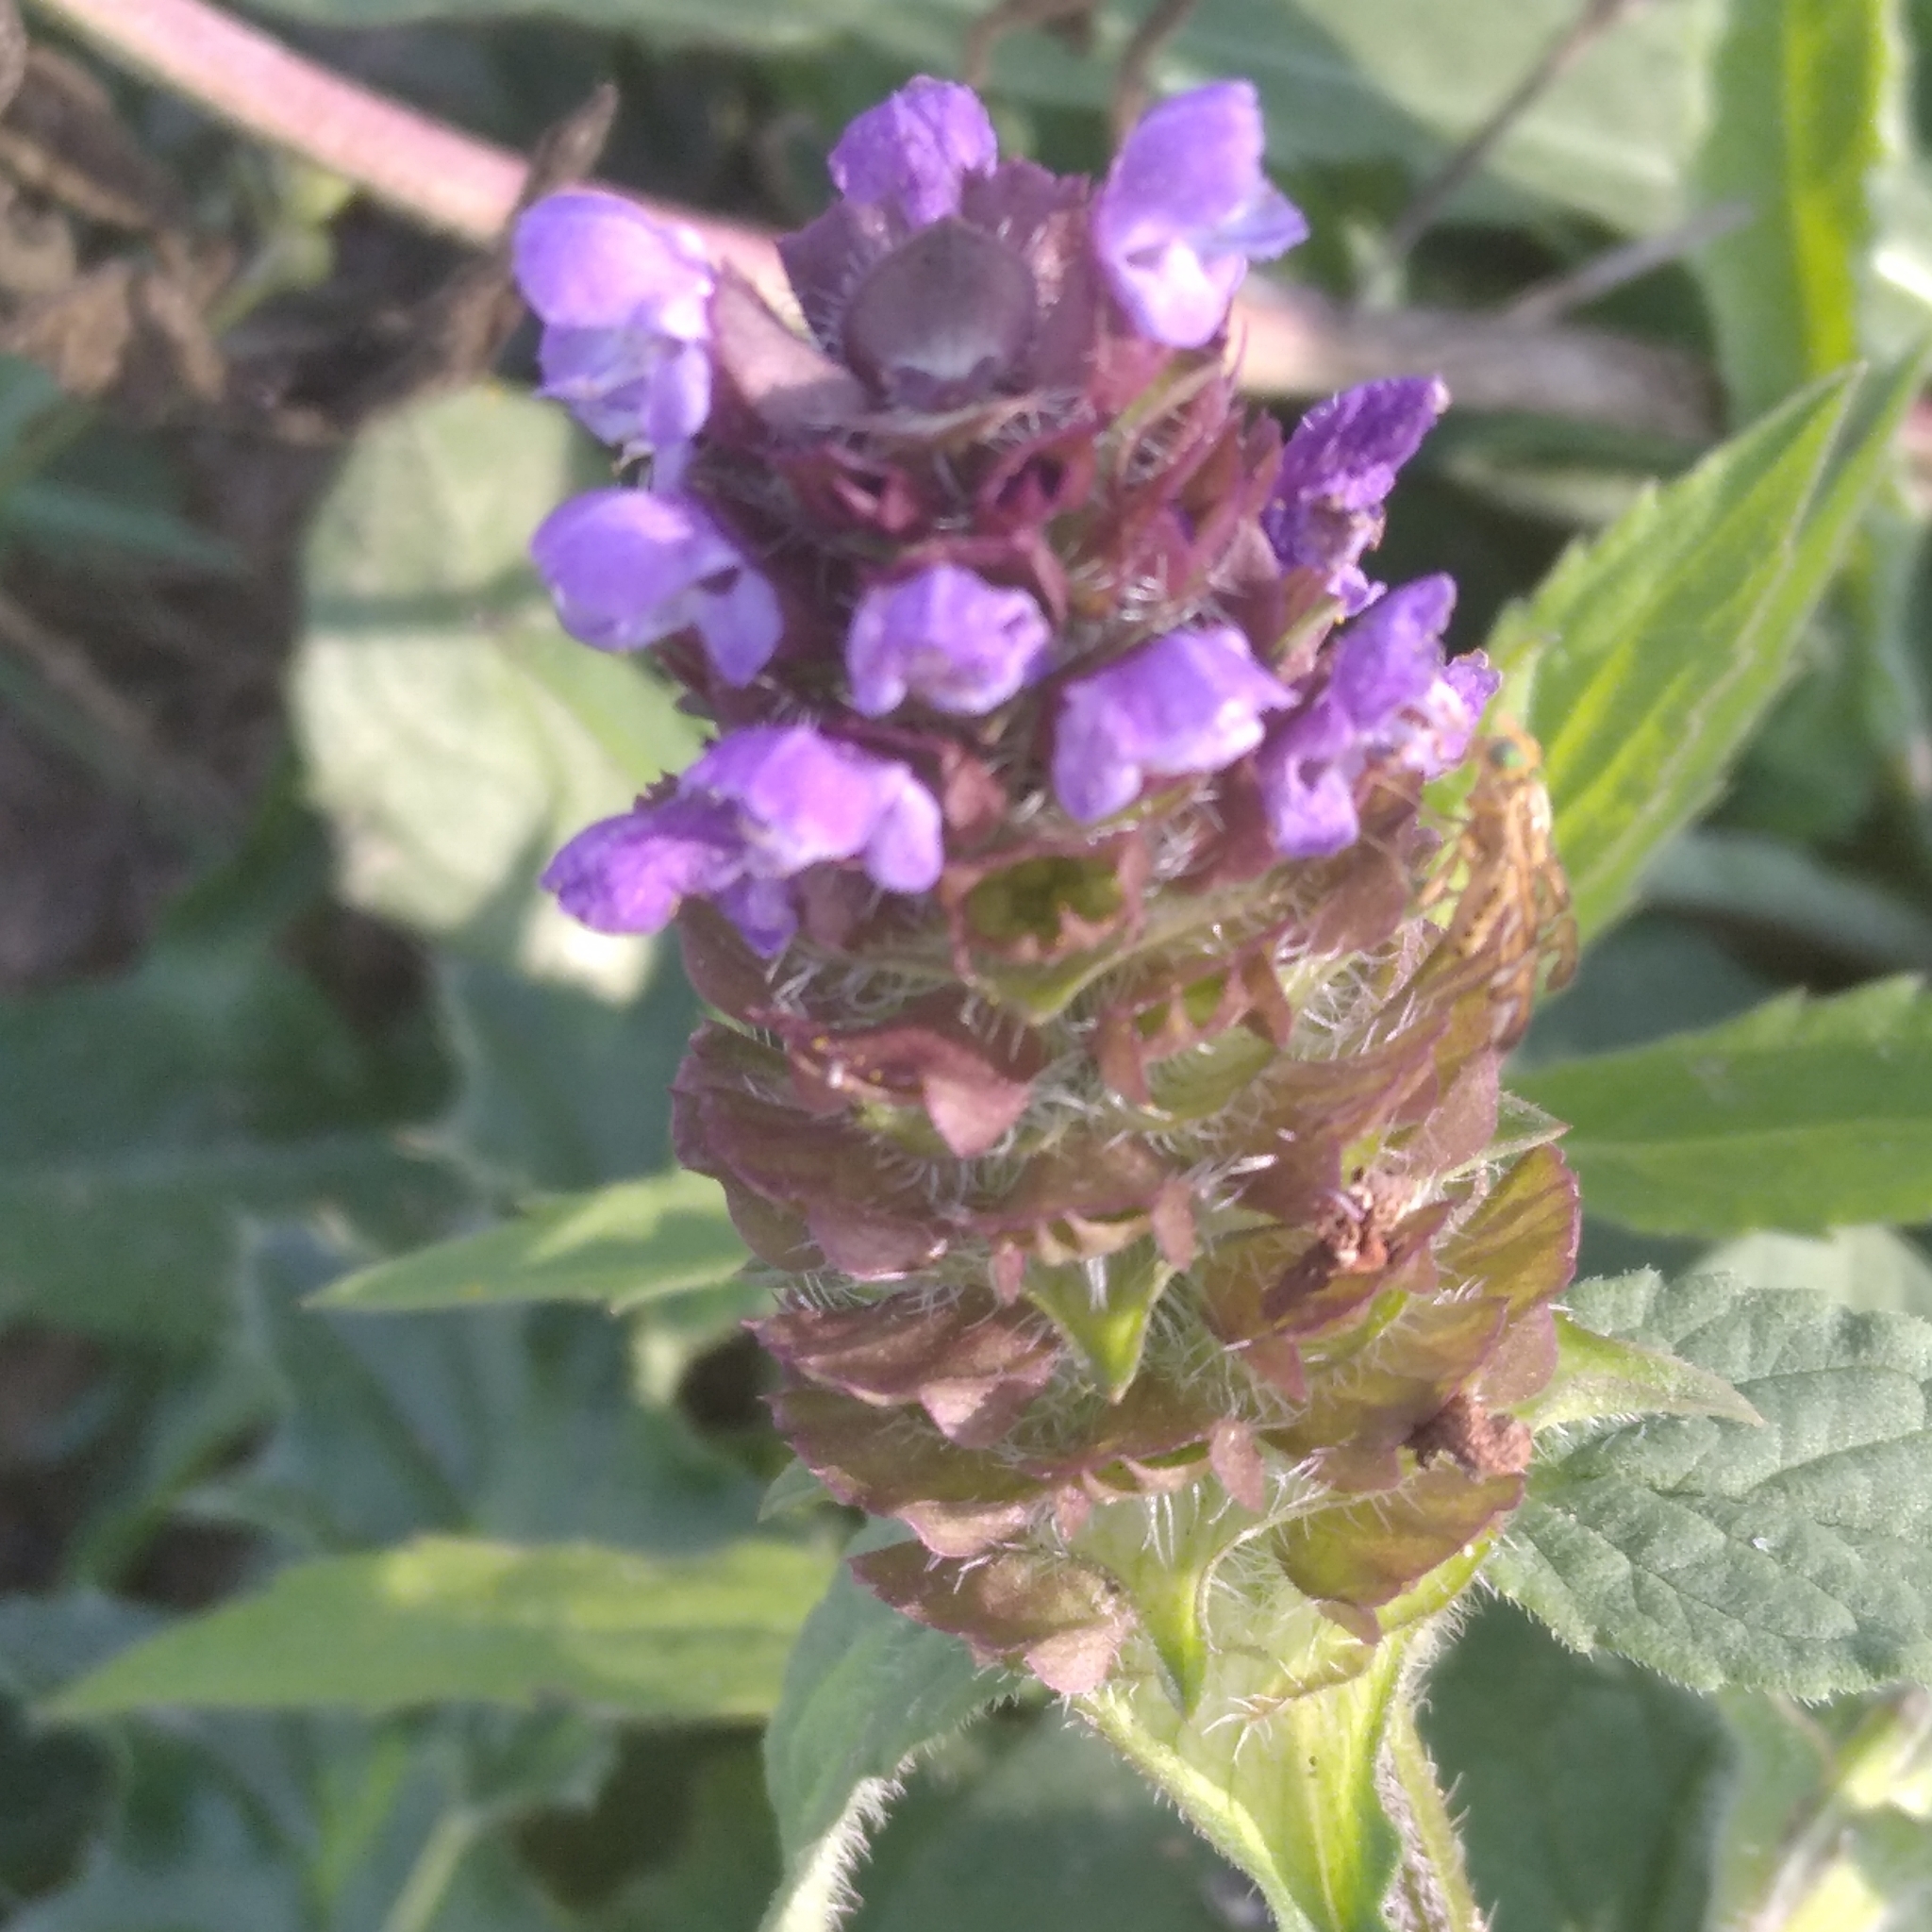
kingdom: Plantae
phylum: Tracheophyta
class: Magnoliopsida
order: Lamiales
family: Lamiaceae
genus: Prunella
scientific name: Prunella vulgaris
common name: Heal-all
